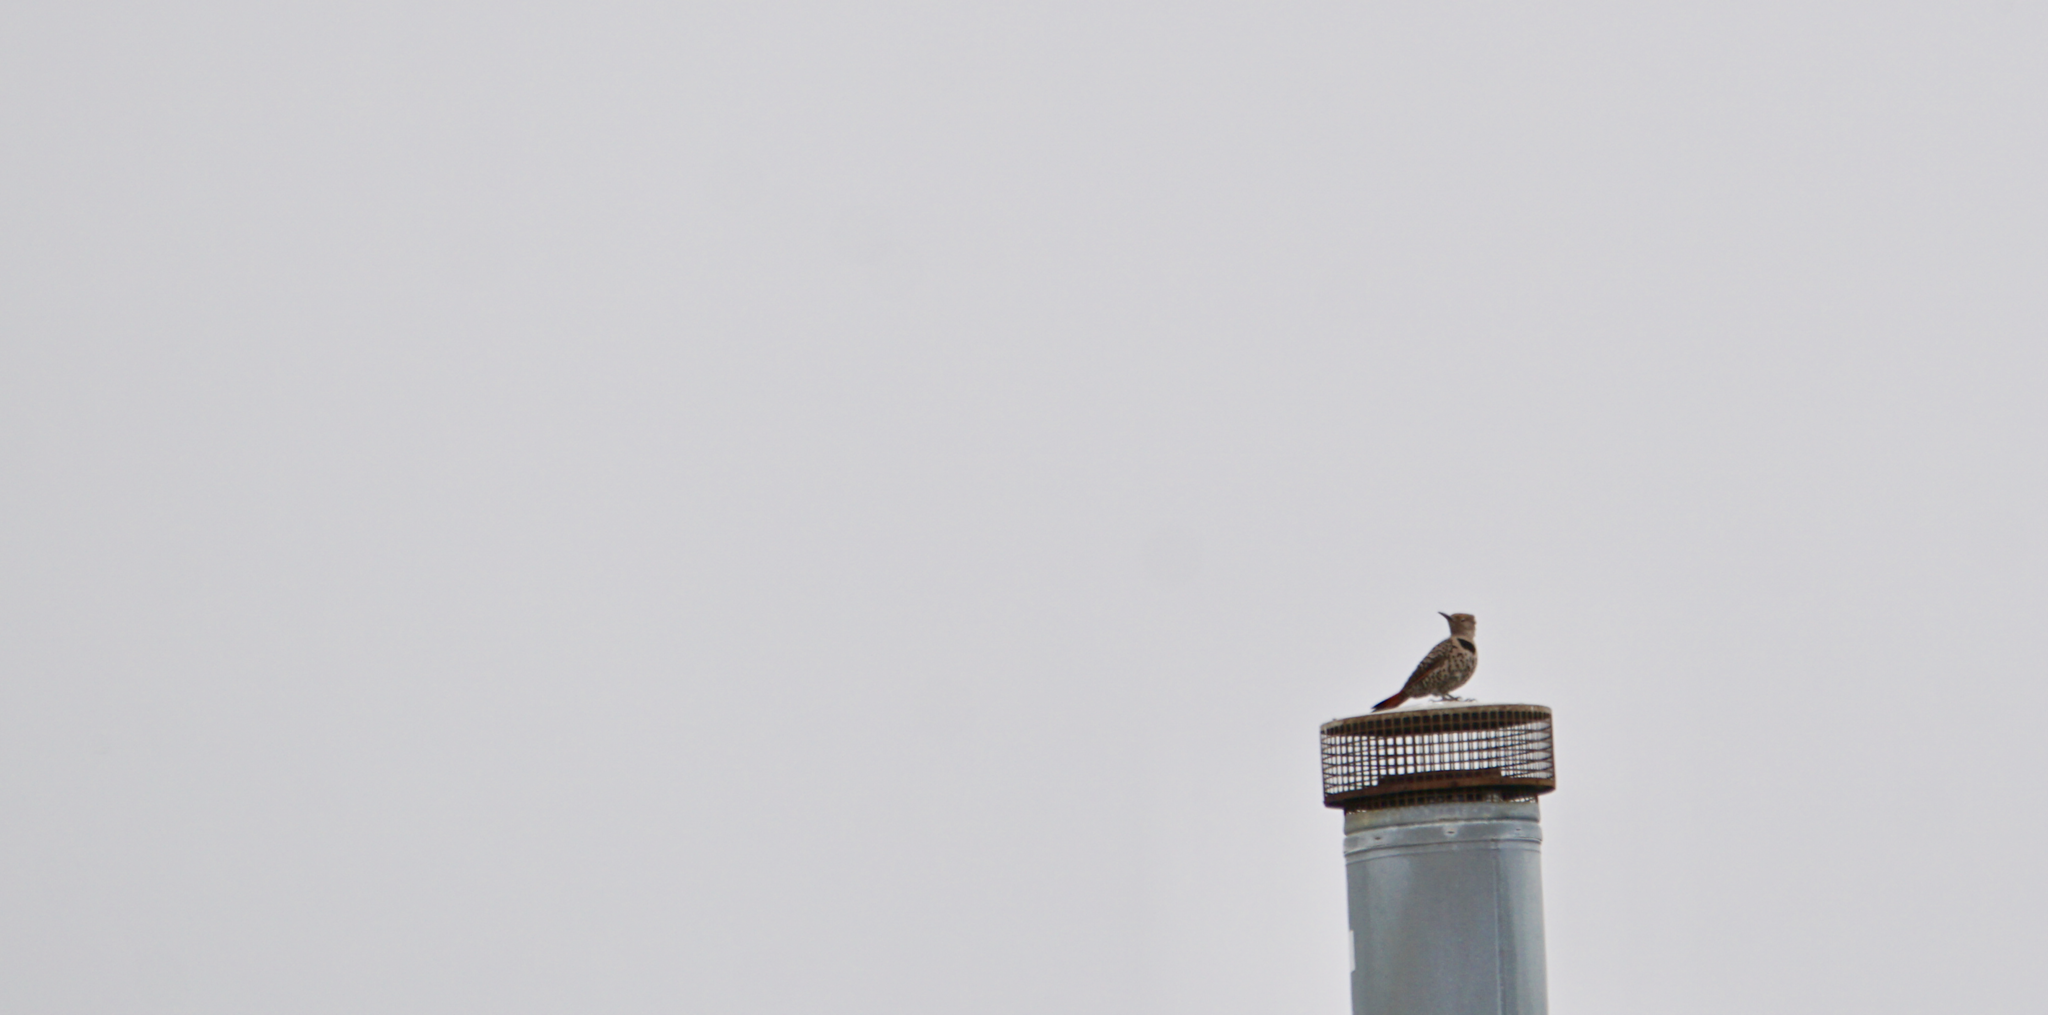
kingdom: Animalia
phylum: Chordata
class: Aves
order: Piciformes
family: Picidae
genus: Colaptes
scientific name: Colaptes auratus
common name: Northern flicker
